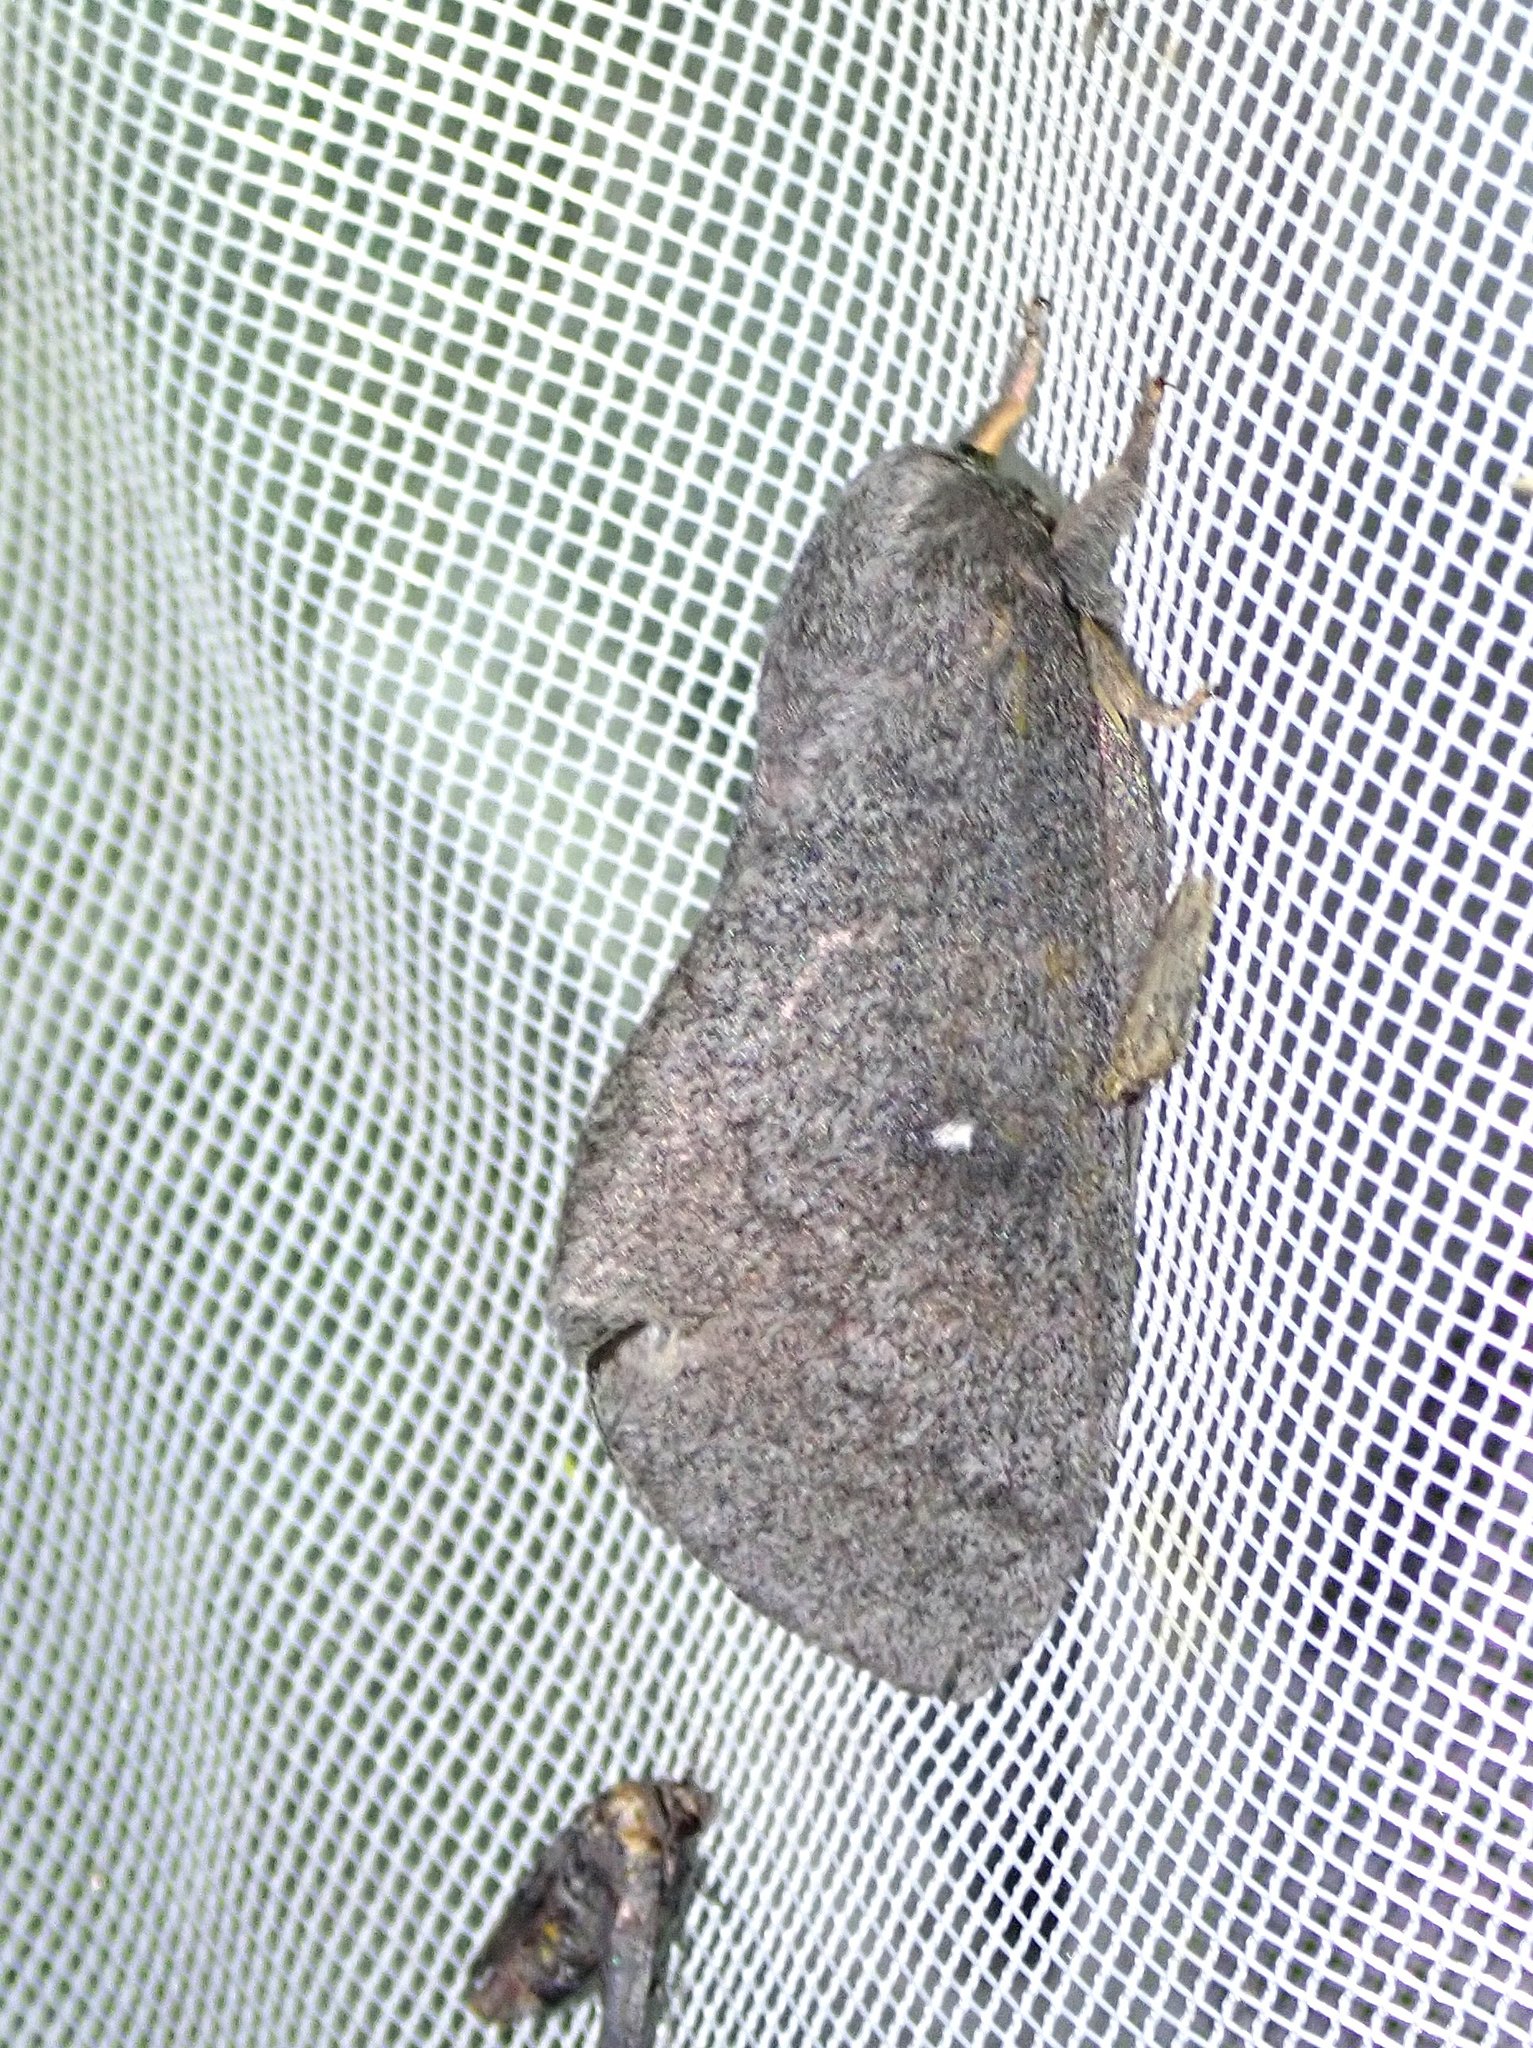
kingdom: Animalia
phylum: Arthropoda
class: Insecta
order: Lepidoptera
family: Saturniidae
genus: Syssphinx
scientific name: Syssphinx hubbardi
